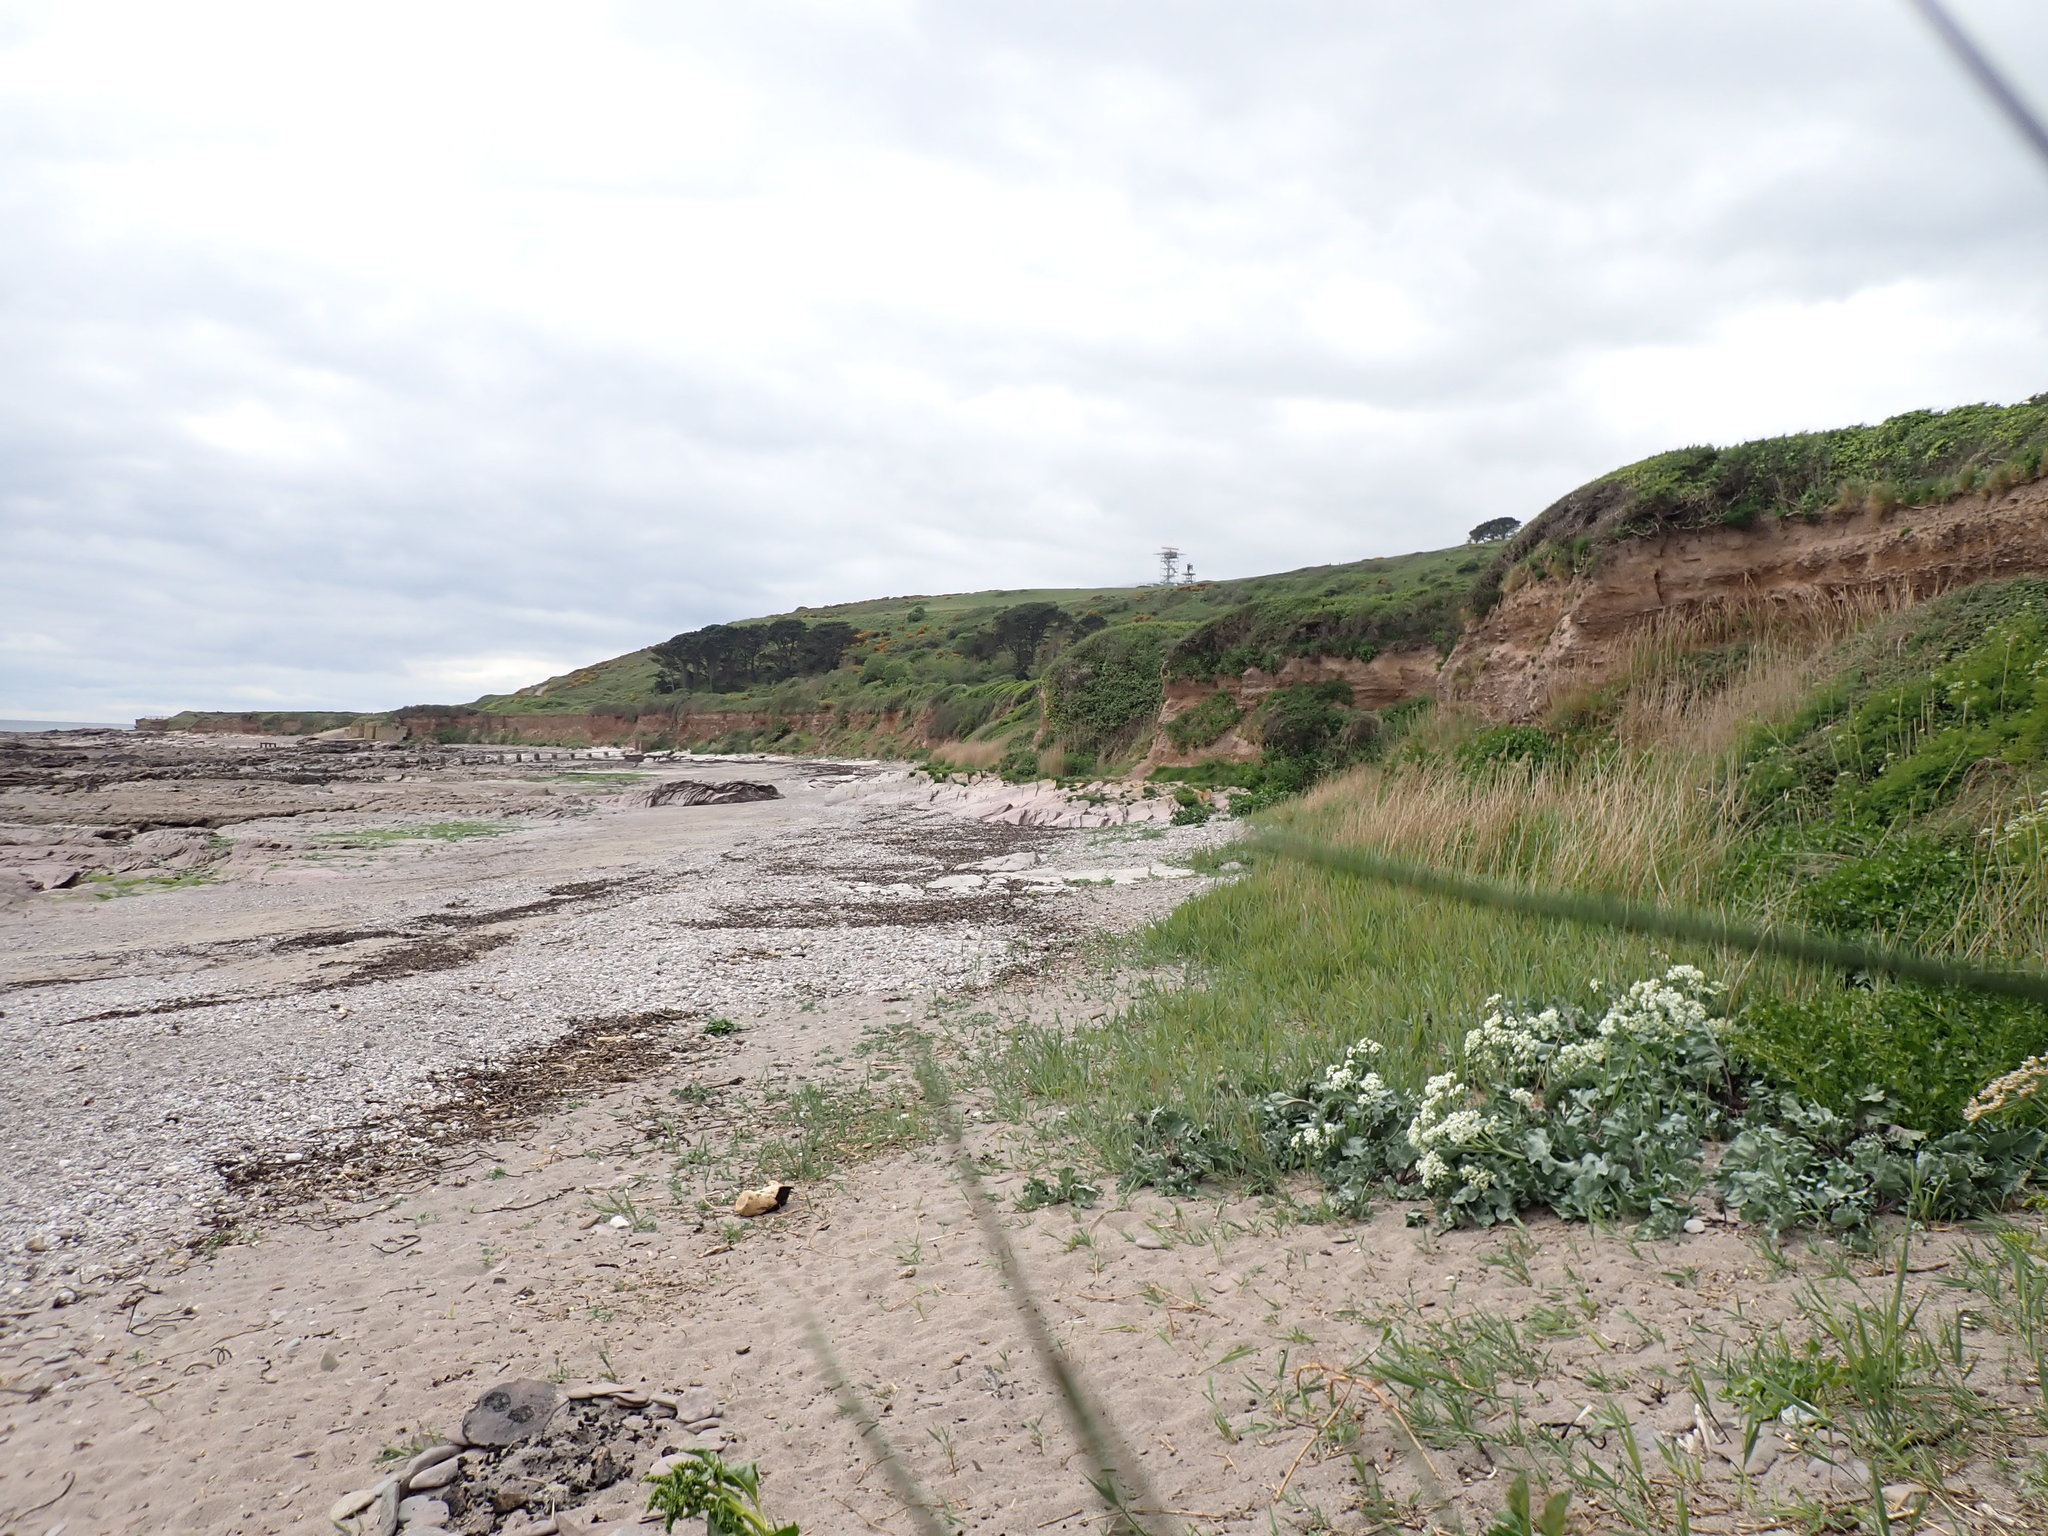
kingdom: Plantae
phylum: Tracheophyta
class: Magnoliopsida
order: Brassicales
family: Brassicaceae
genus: Crambe
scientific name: Crambe maritima
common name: Sea-kale
